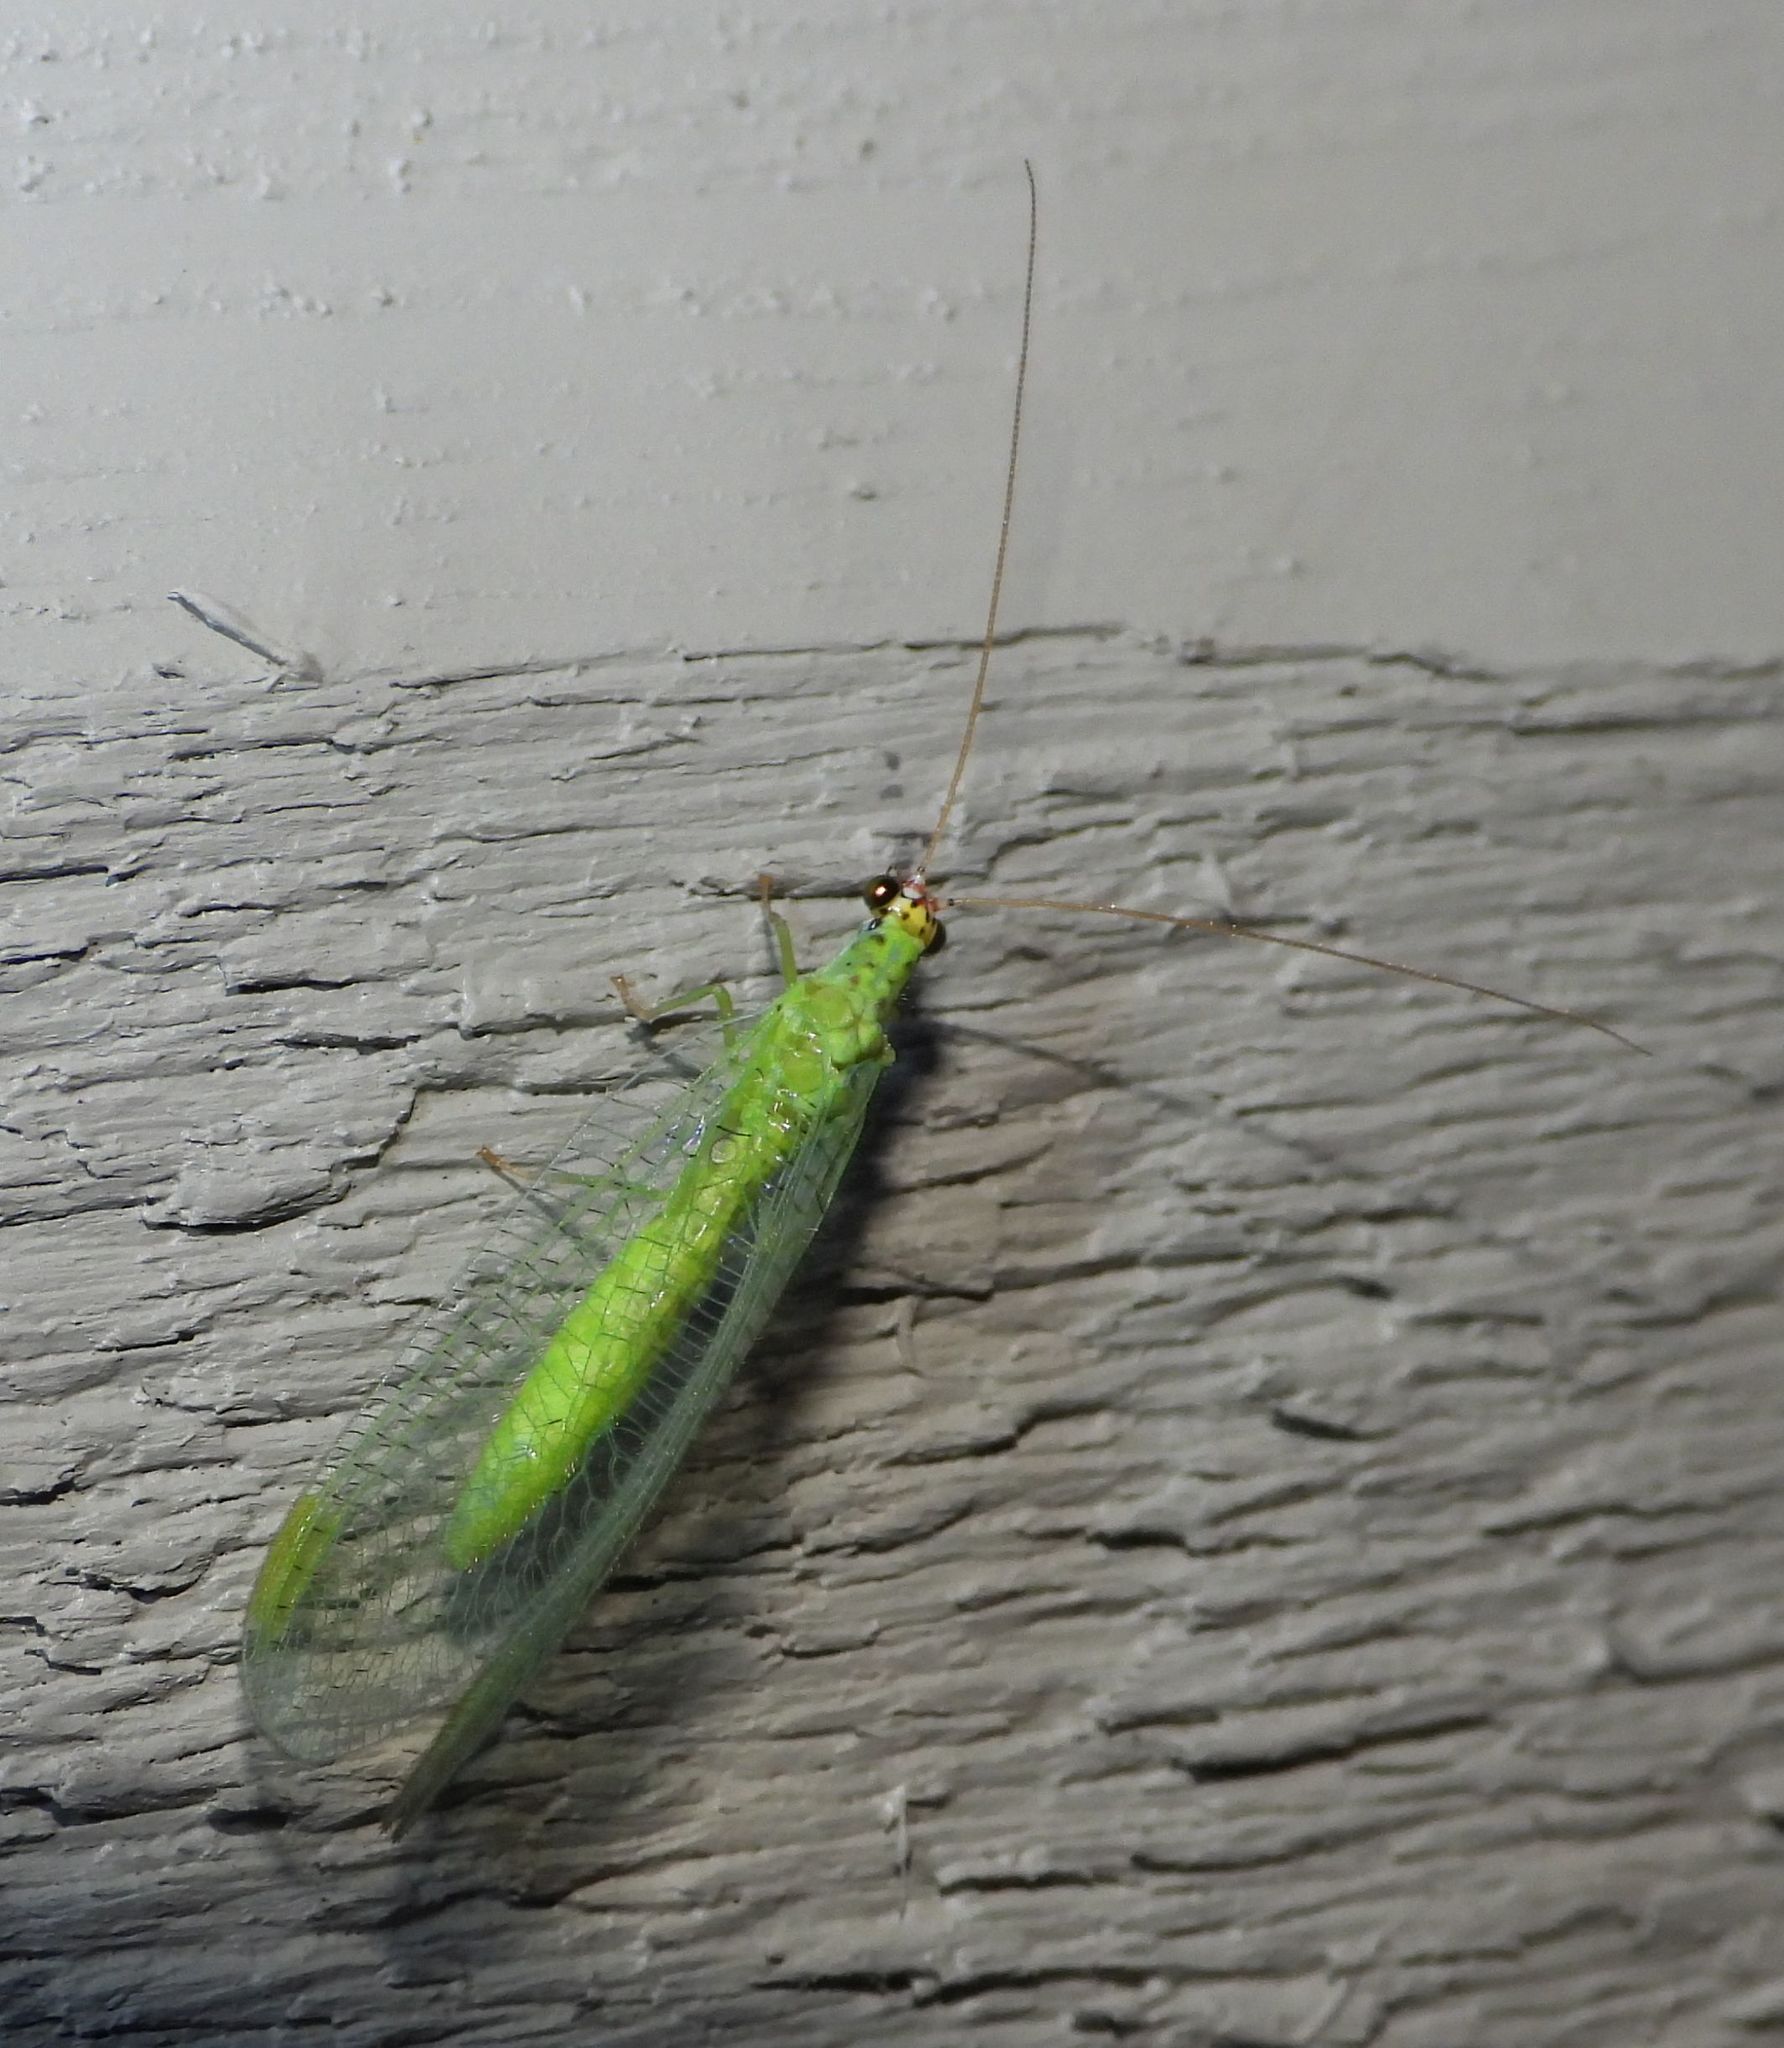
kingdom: Animalia
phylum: Arthropoda
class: Insecta
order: Neuroptera
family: Chrysopidae
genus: Chrysopa
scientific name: Chrysopa oculata
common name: Golden-eyed lacewing
